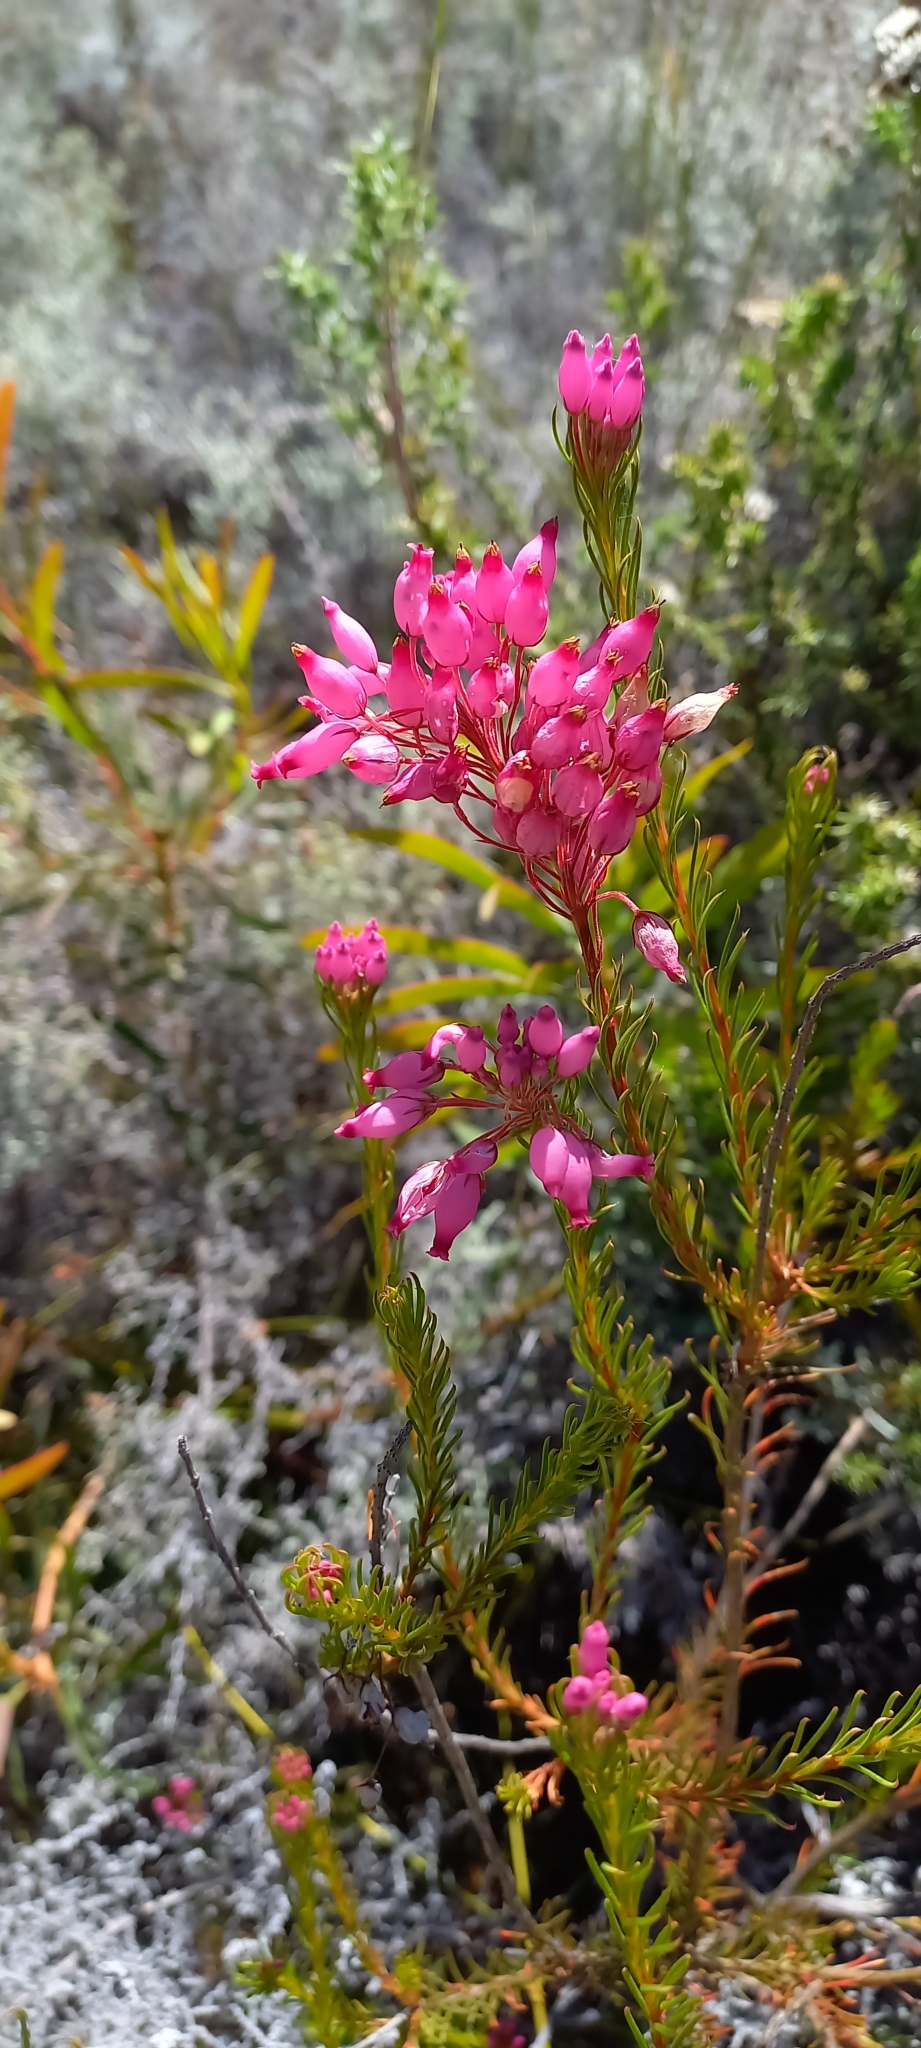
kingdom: Plantae
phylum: Tracheophyta
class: Magnoliopsida
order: Ericales
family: Ericaceae
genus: Erica
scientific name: Erica inflata
